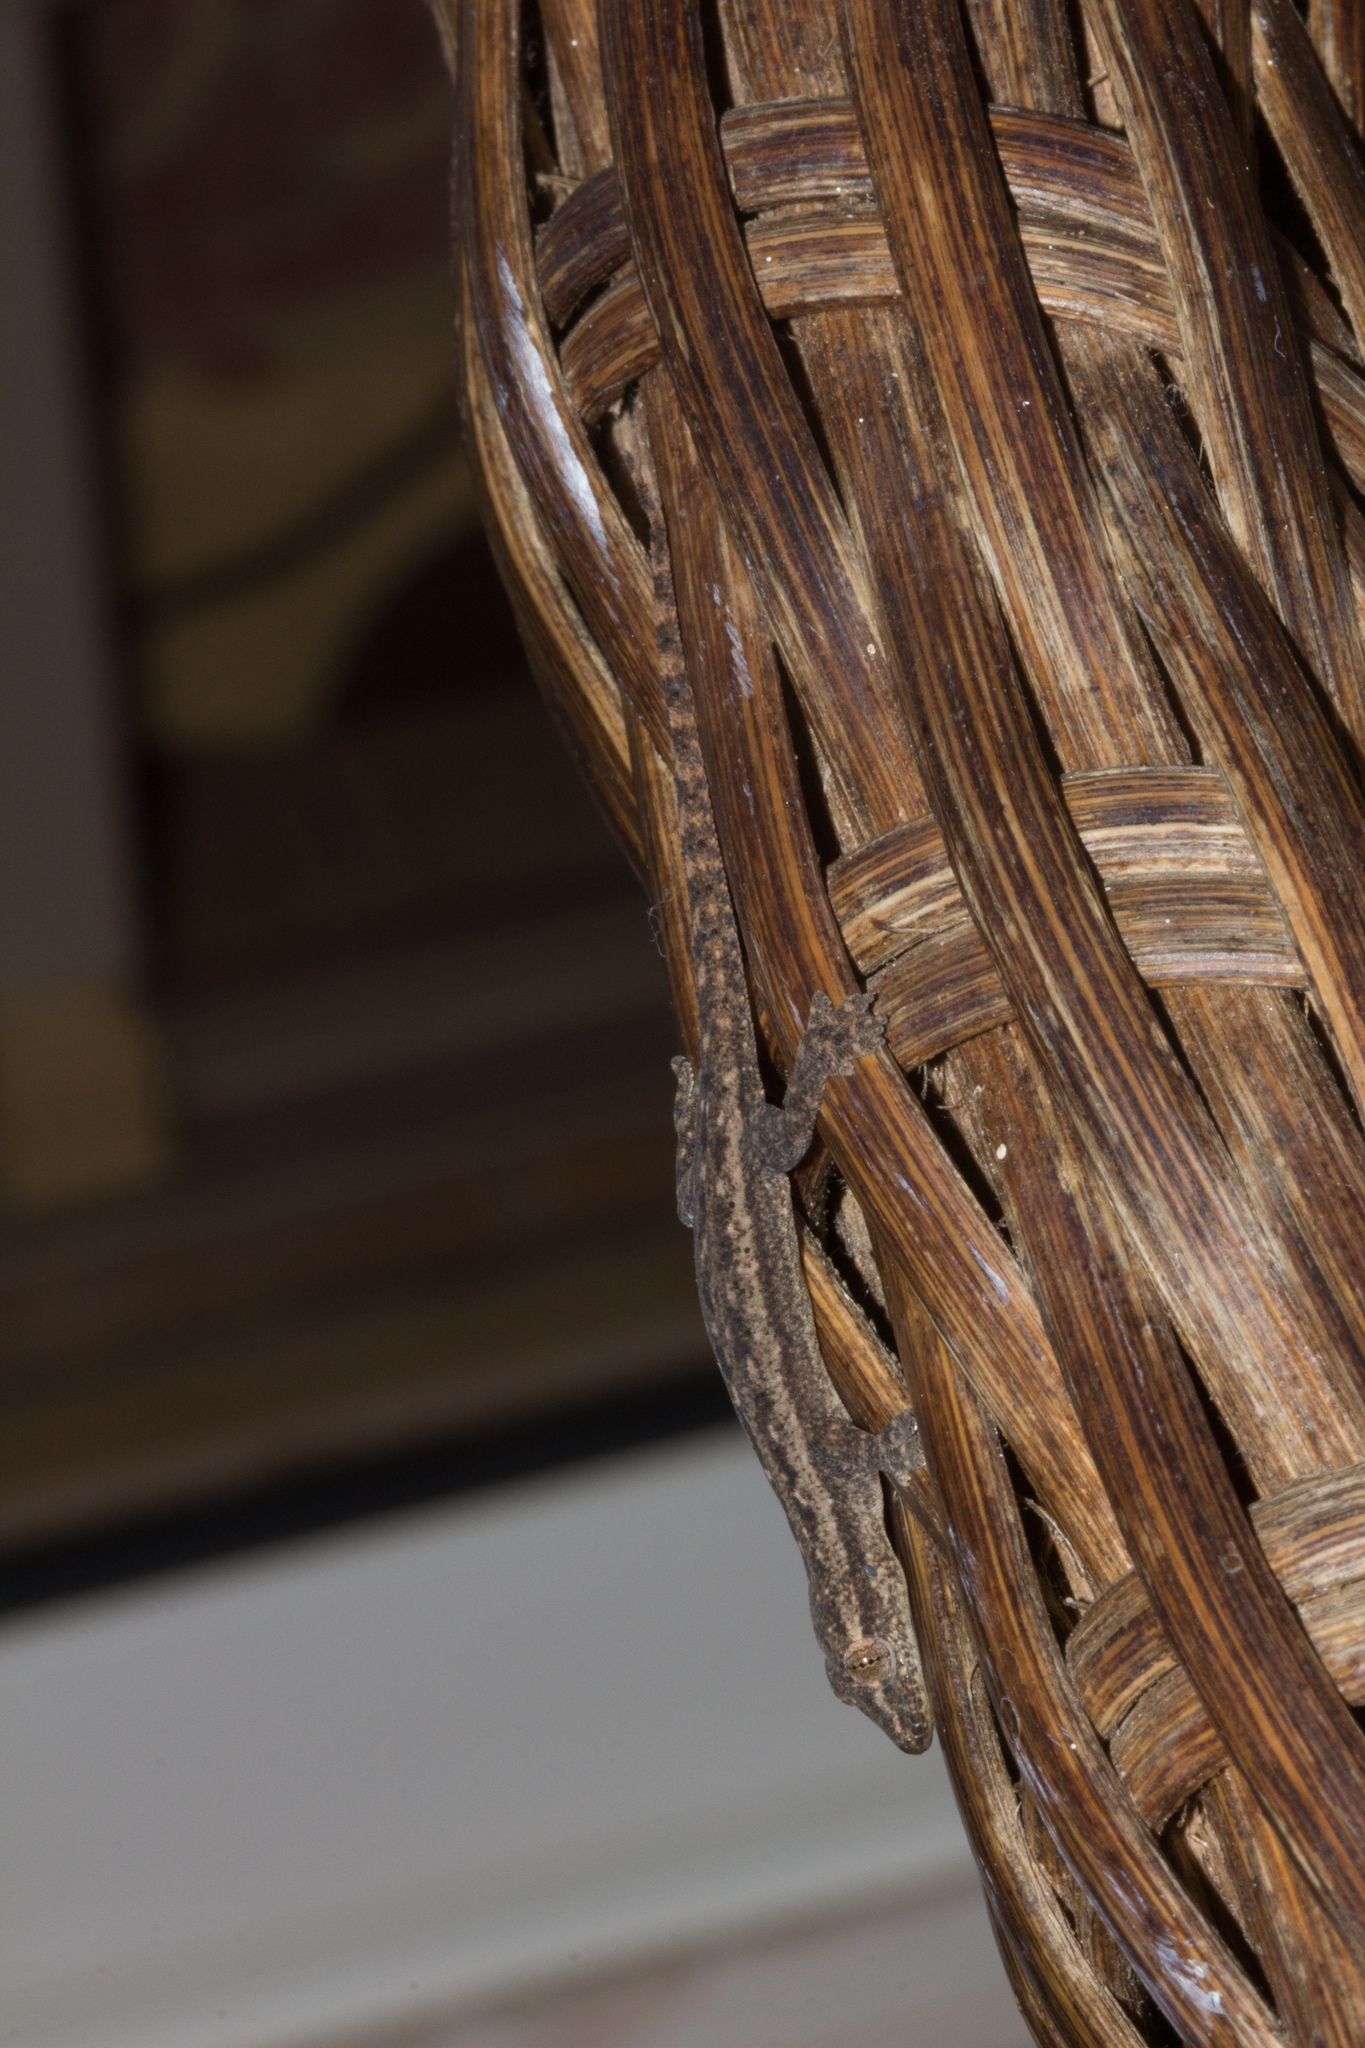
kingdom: Animalia
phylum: Chordata
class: Squamata
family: Gekkonidae
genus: Hemidactylus
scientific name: Hemidactylus frenatus
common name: Common house gecko
